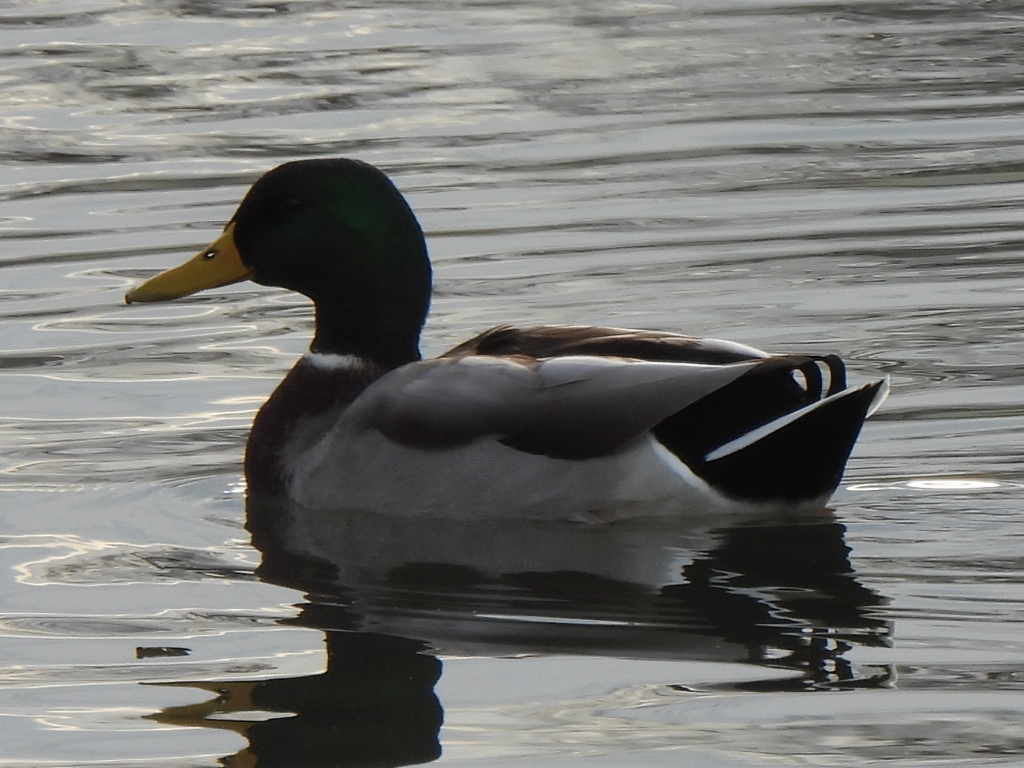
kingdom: Animalia
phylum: Chordata
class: Aves
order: Anseriformes
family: Anatidae
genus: Anas
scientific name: Anas platyrhynchos
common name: Mallard
